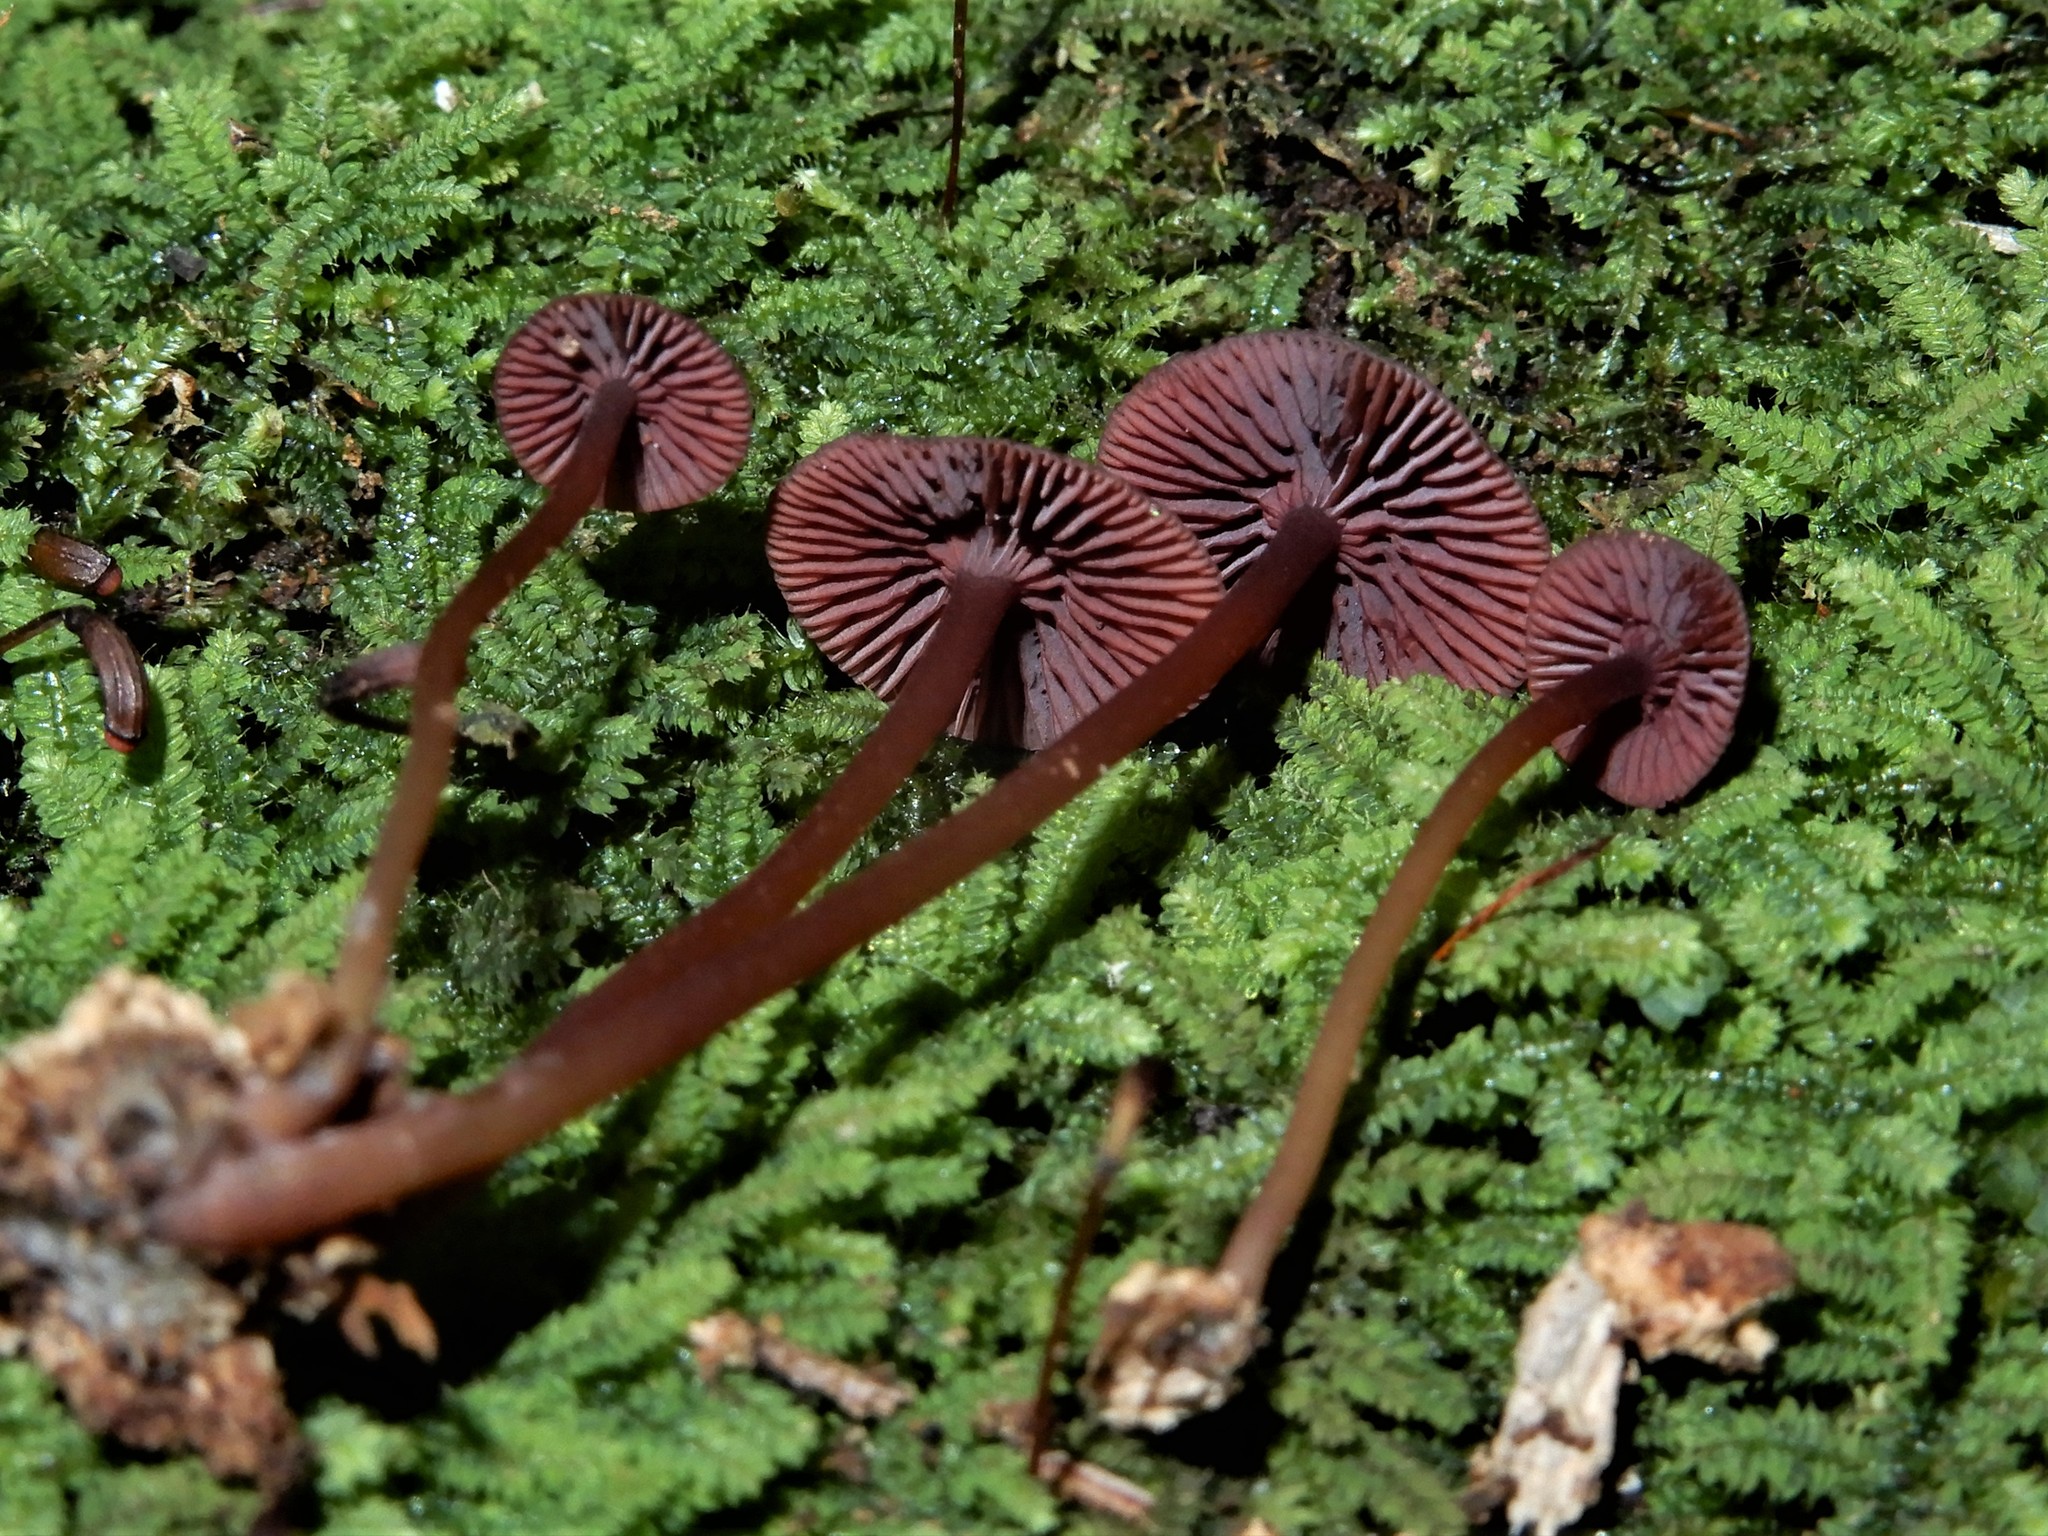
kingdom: Fungi
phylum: Basidiomycota
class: Agaricomycetes
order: Agaricales
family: Mycenaceae
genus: Mycena
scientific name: Mycena
